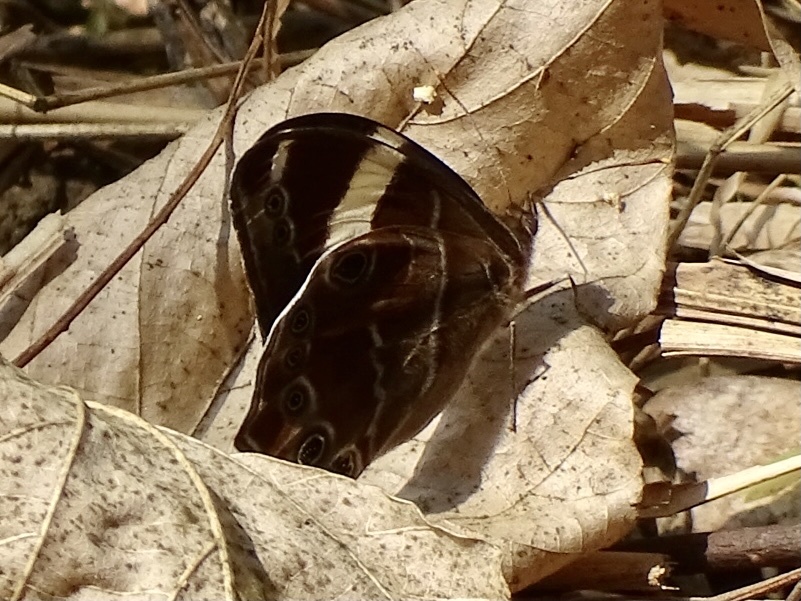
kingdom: Animalia
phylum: Arthropoda
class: Insecta
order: Lepidoptera
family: Nymphalidae
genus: Lethe
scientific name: Lethe confusa
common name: Banded treebrown
